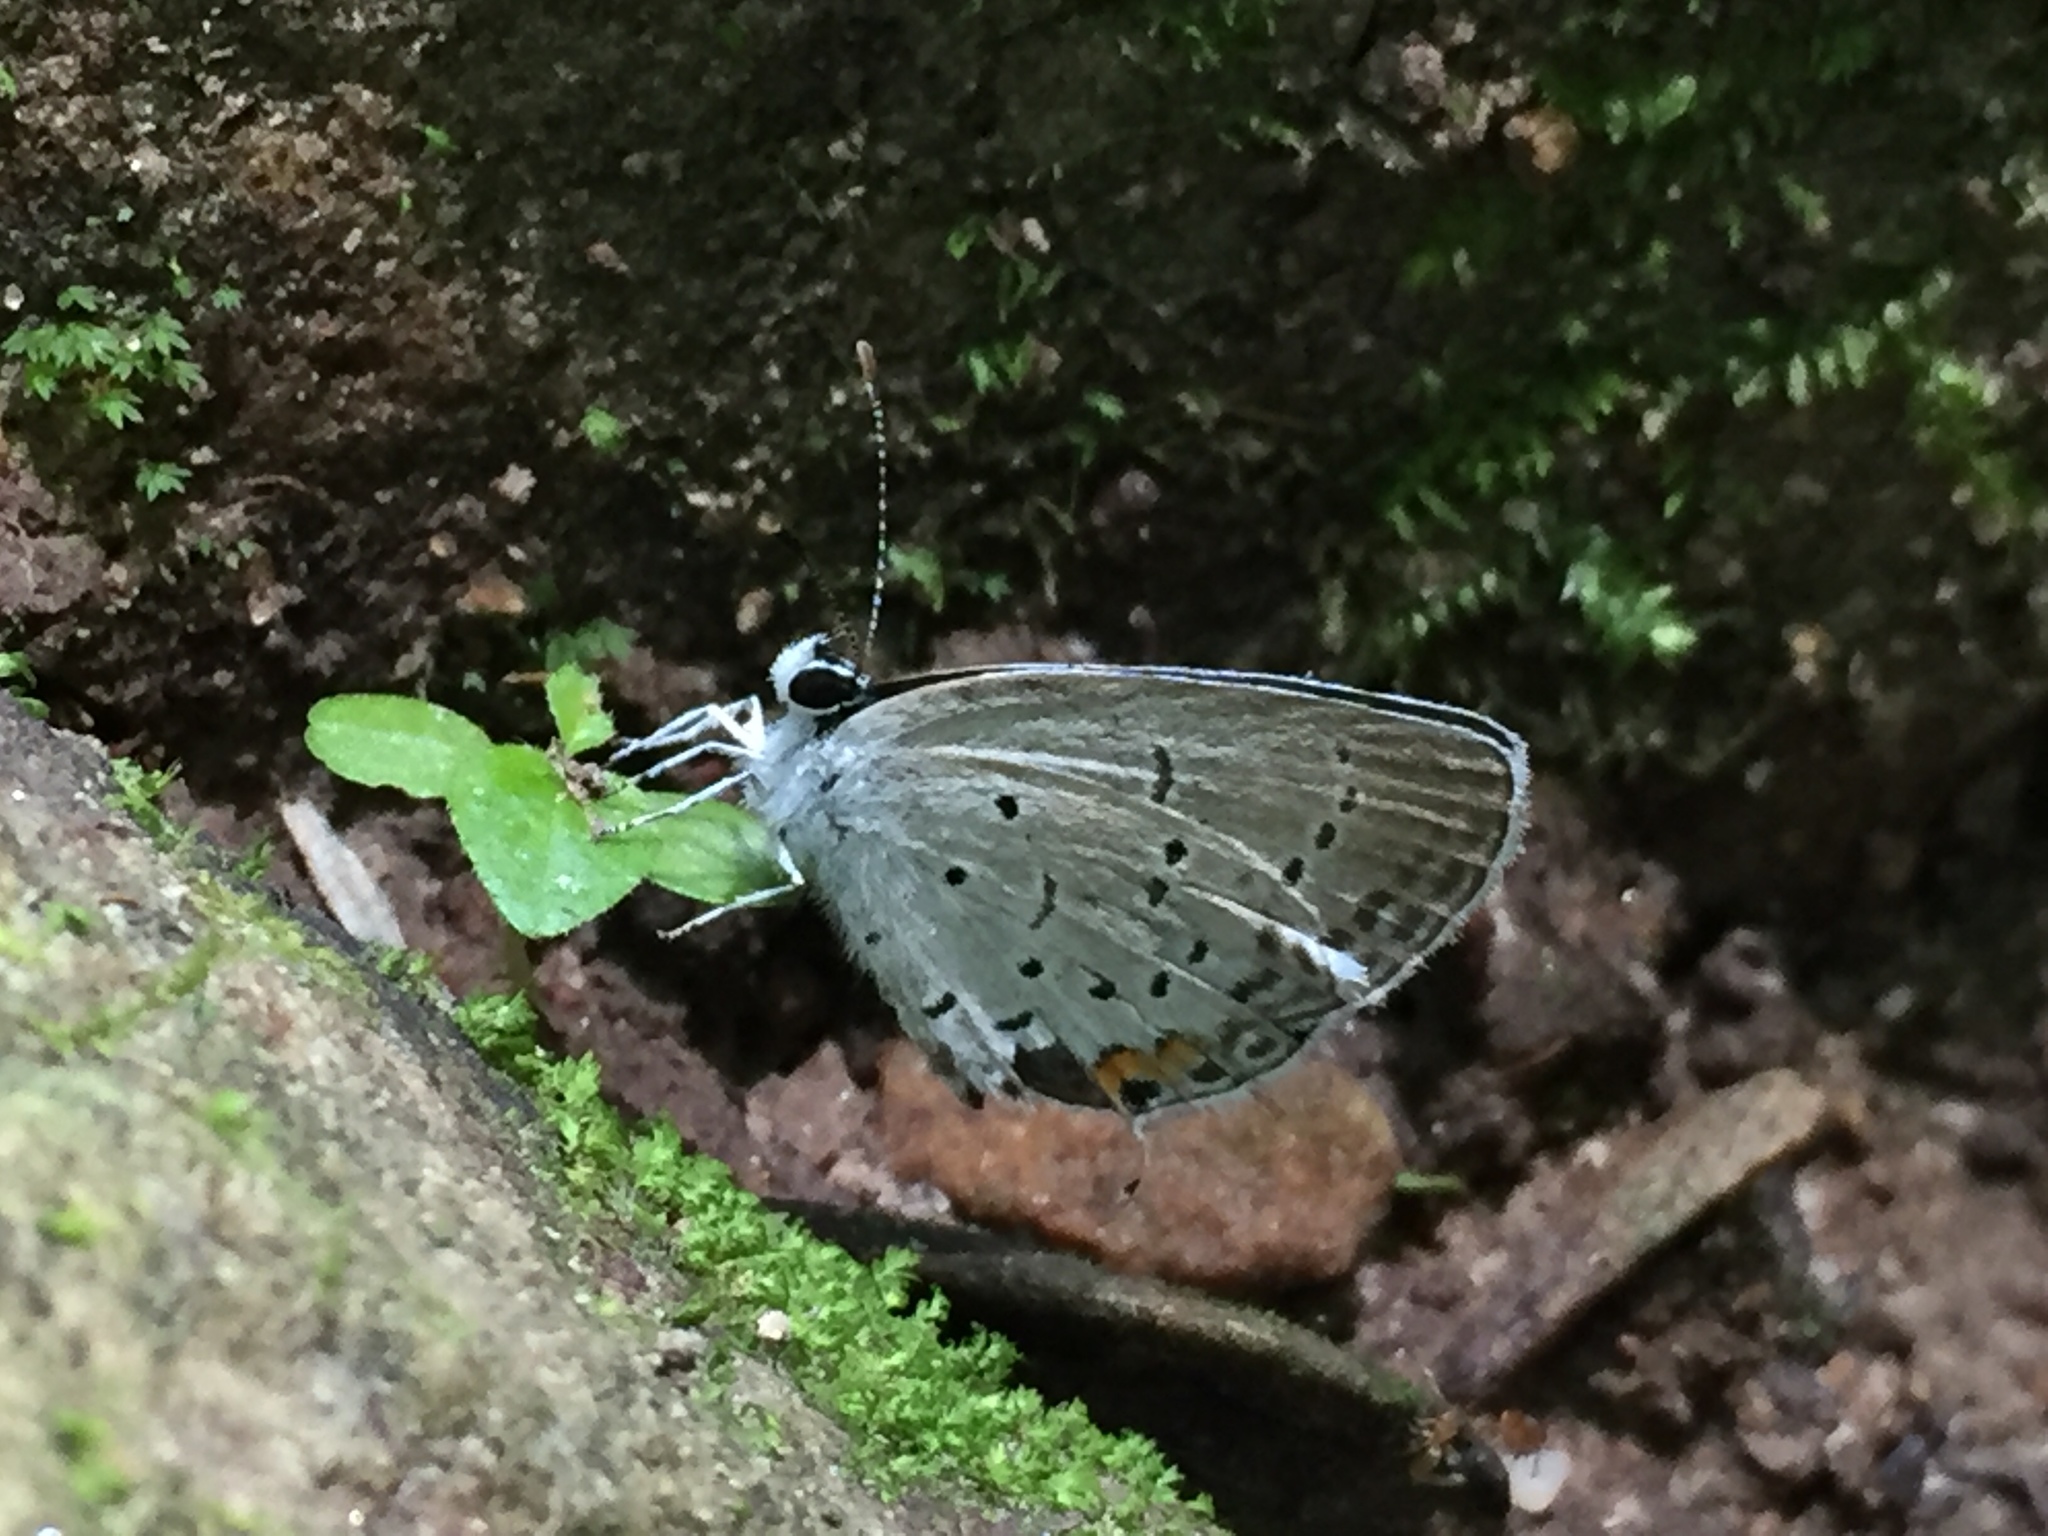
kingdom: Animalia
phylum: Arthropoda
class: Insecta
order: Lepidoptera
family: Lycaenidae
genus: Elkalyce
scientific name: Elkalyce comyntas
